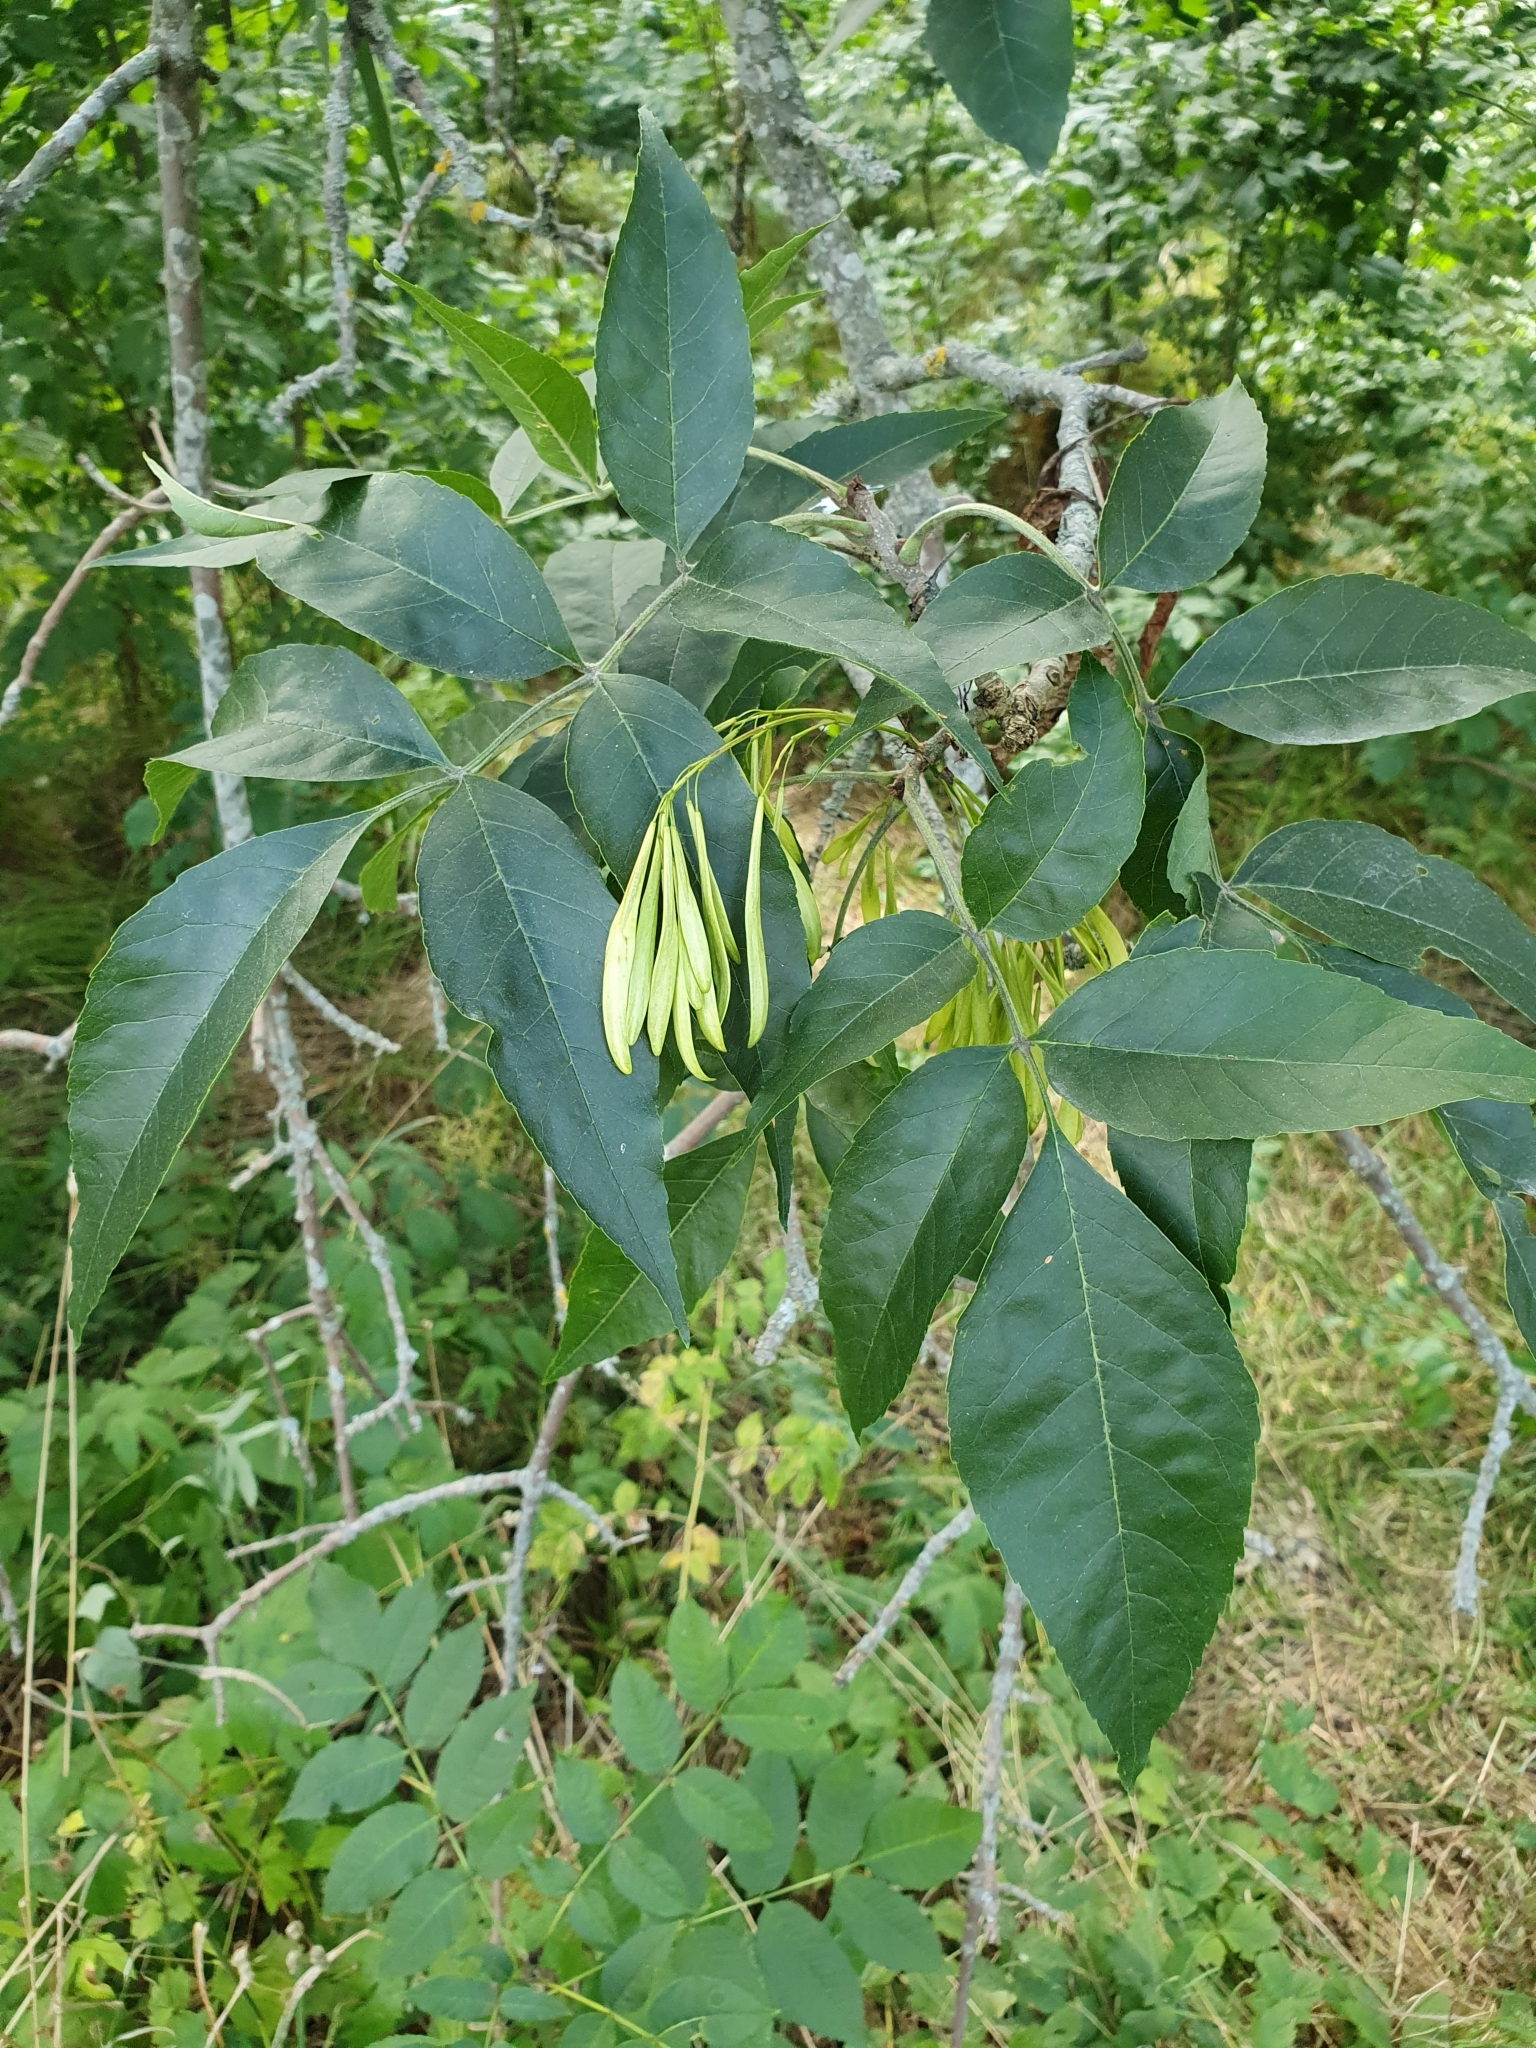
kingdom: Plantae
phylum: Tracheophyta
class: Magnoliopsida
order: Lamiales
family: Oleaceae
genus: Fraxinus
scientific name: Fraxinus excelsior
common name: European ash
